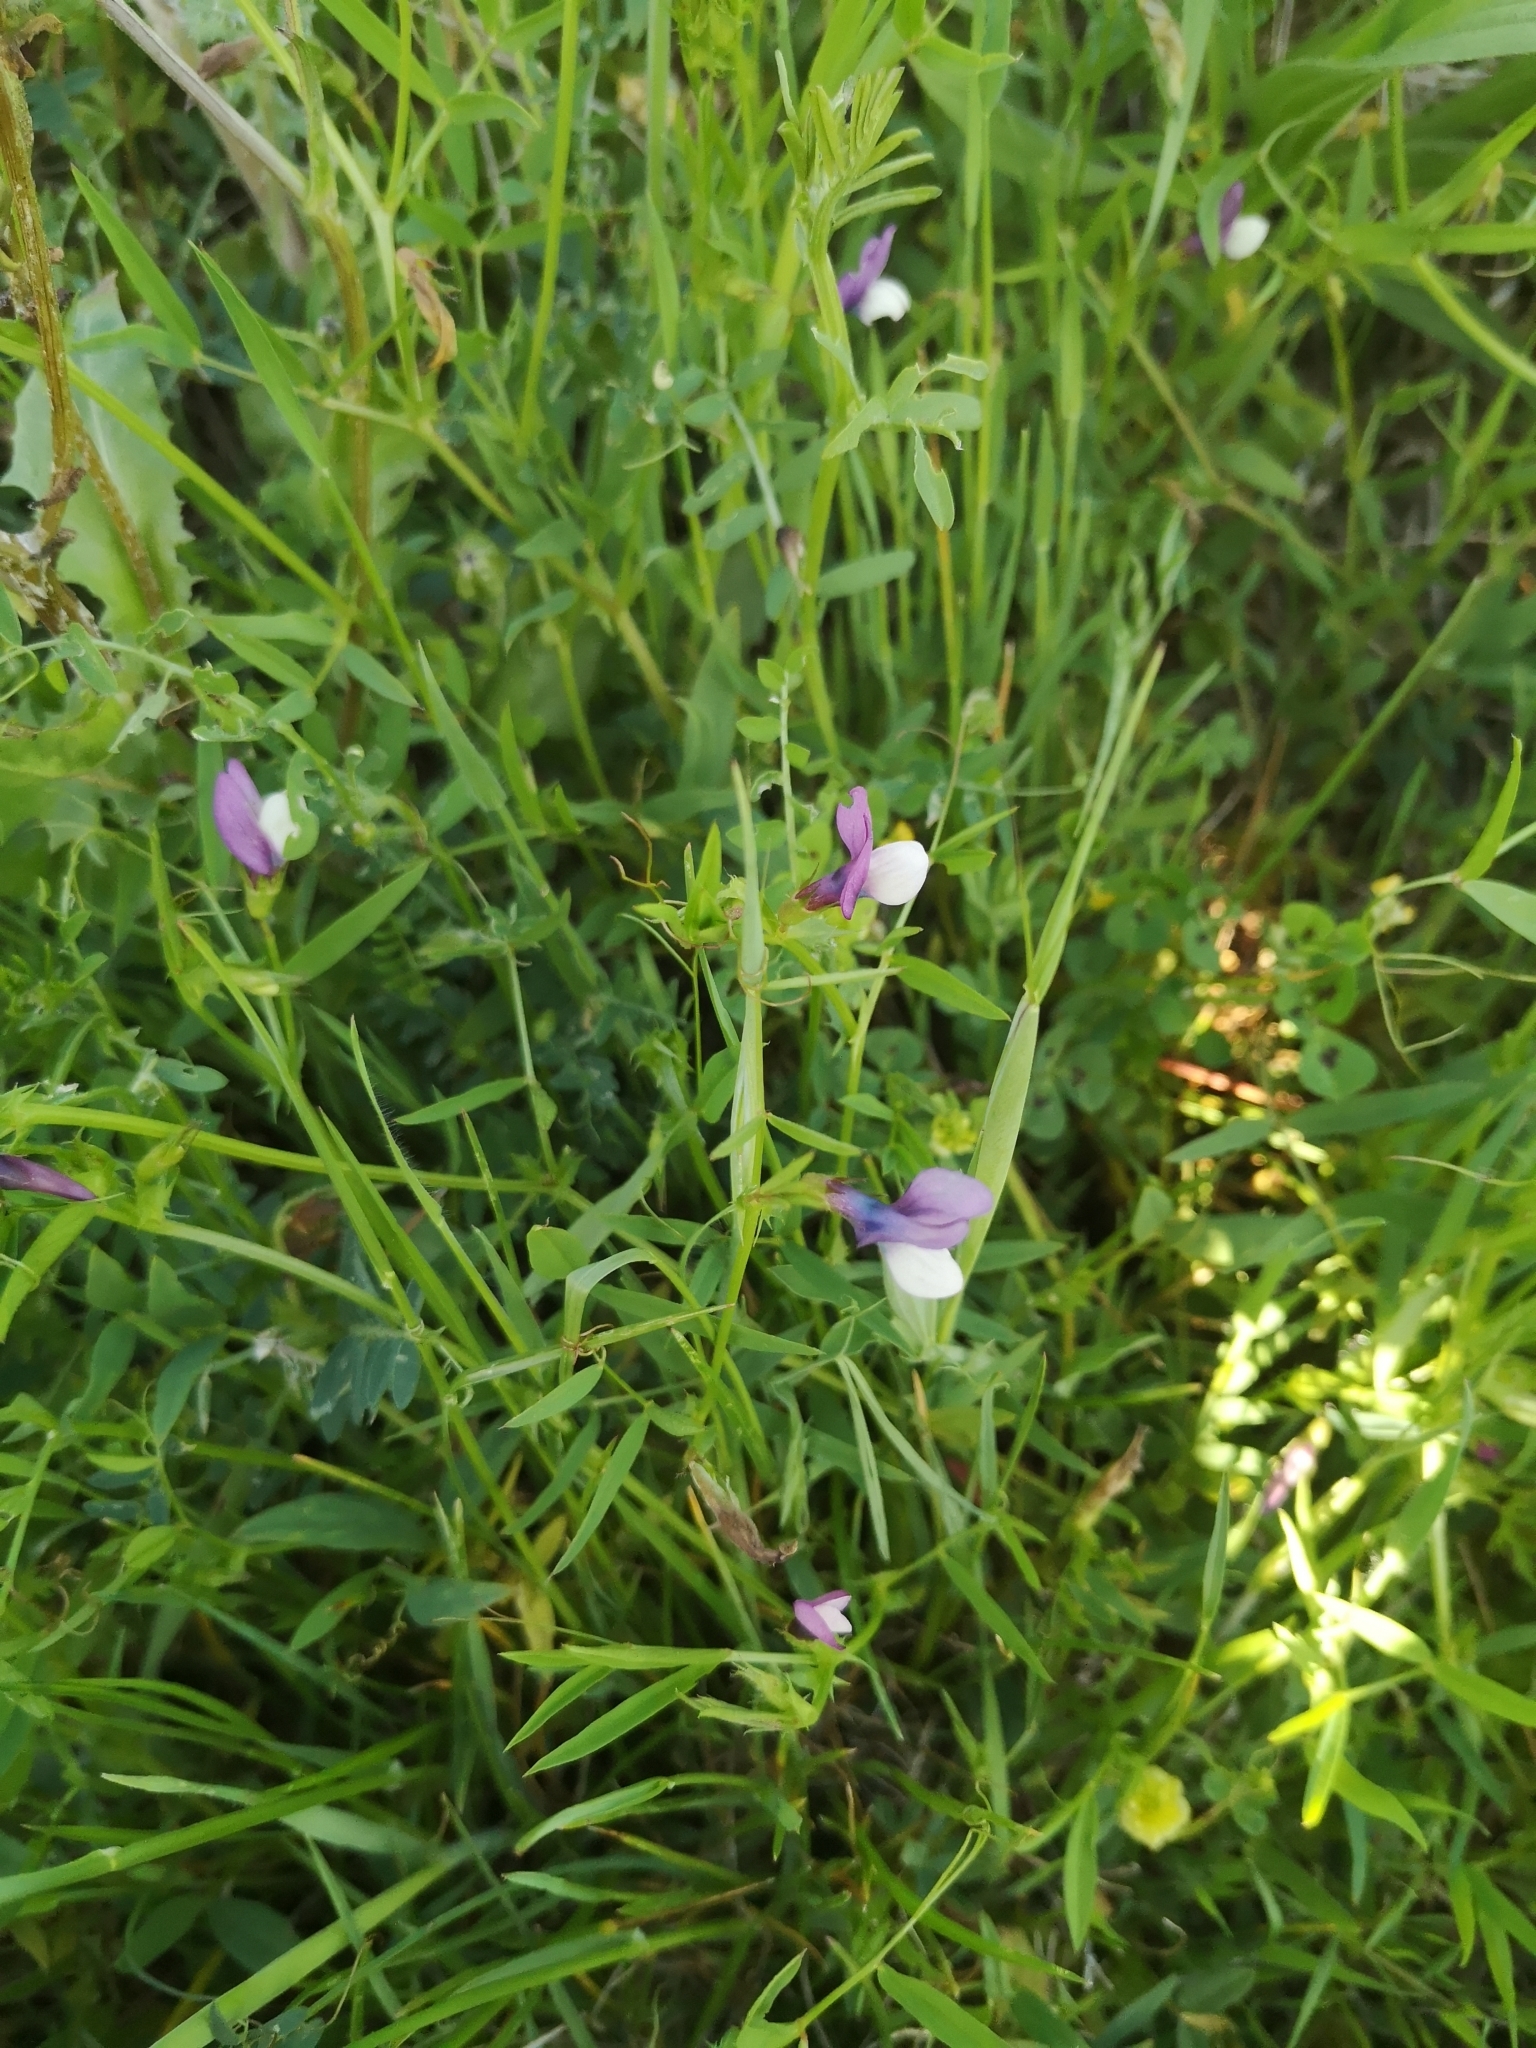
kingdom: Plantae
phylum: Tracheophyta
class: Magnoliopsida
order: Fabales
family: Fabaceae
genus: Vicia
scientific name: Vicia bithynica
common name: Bithynian vetch
